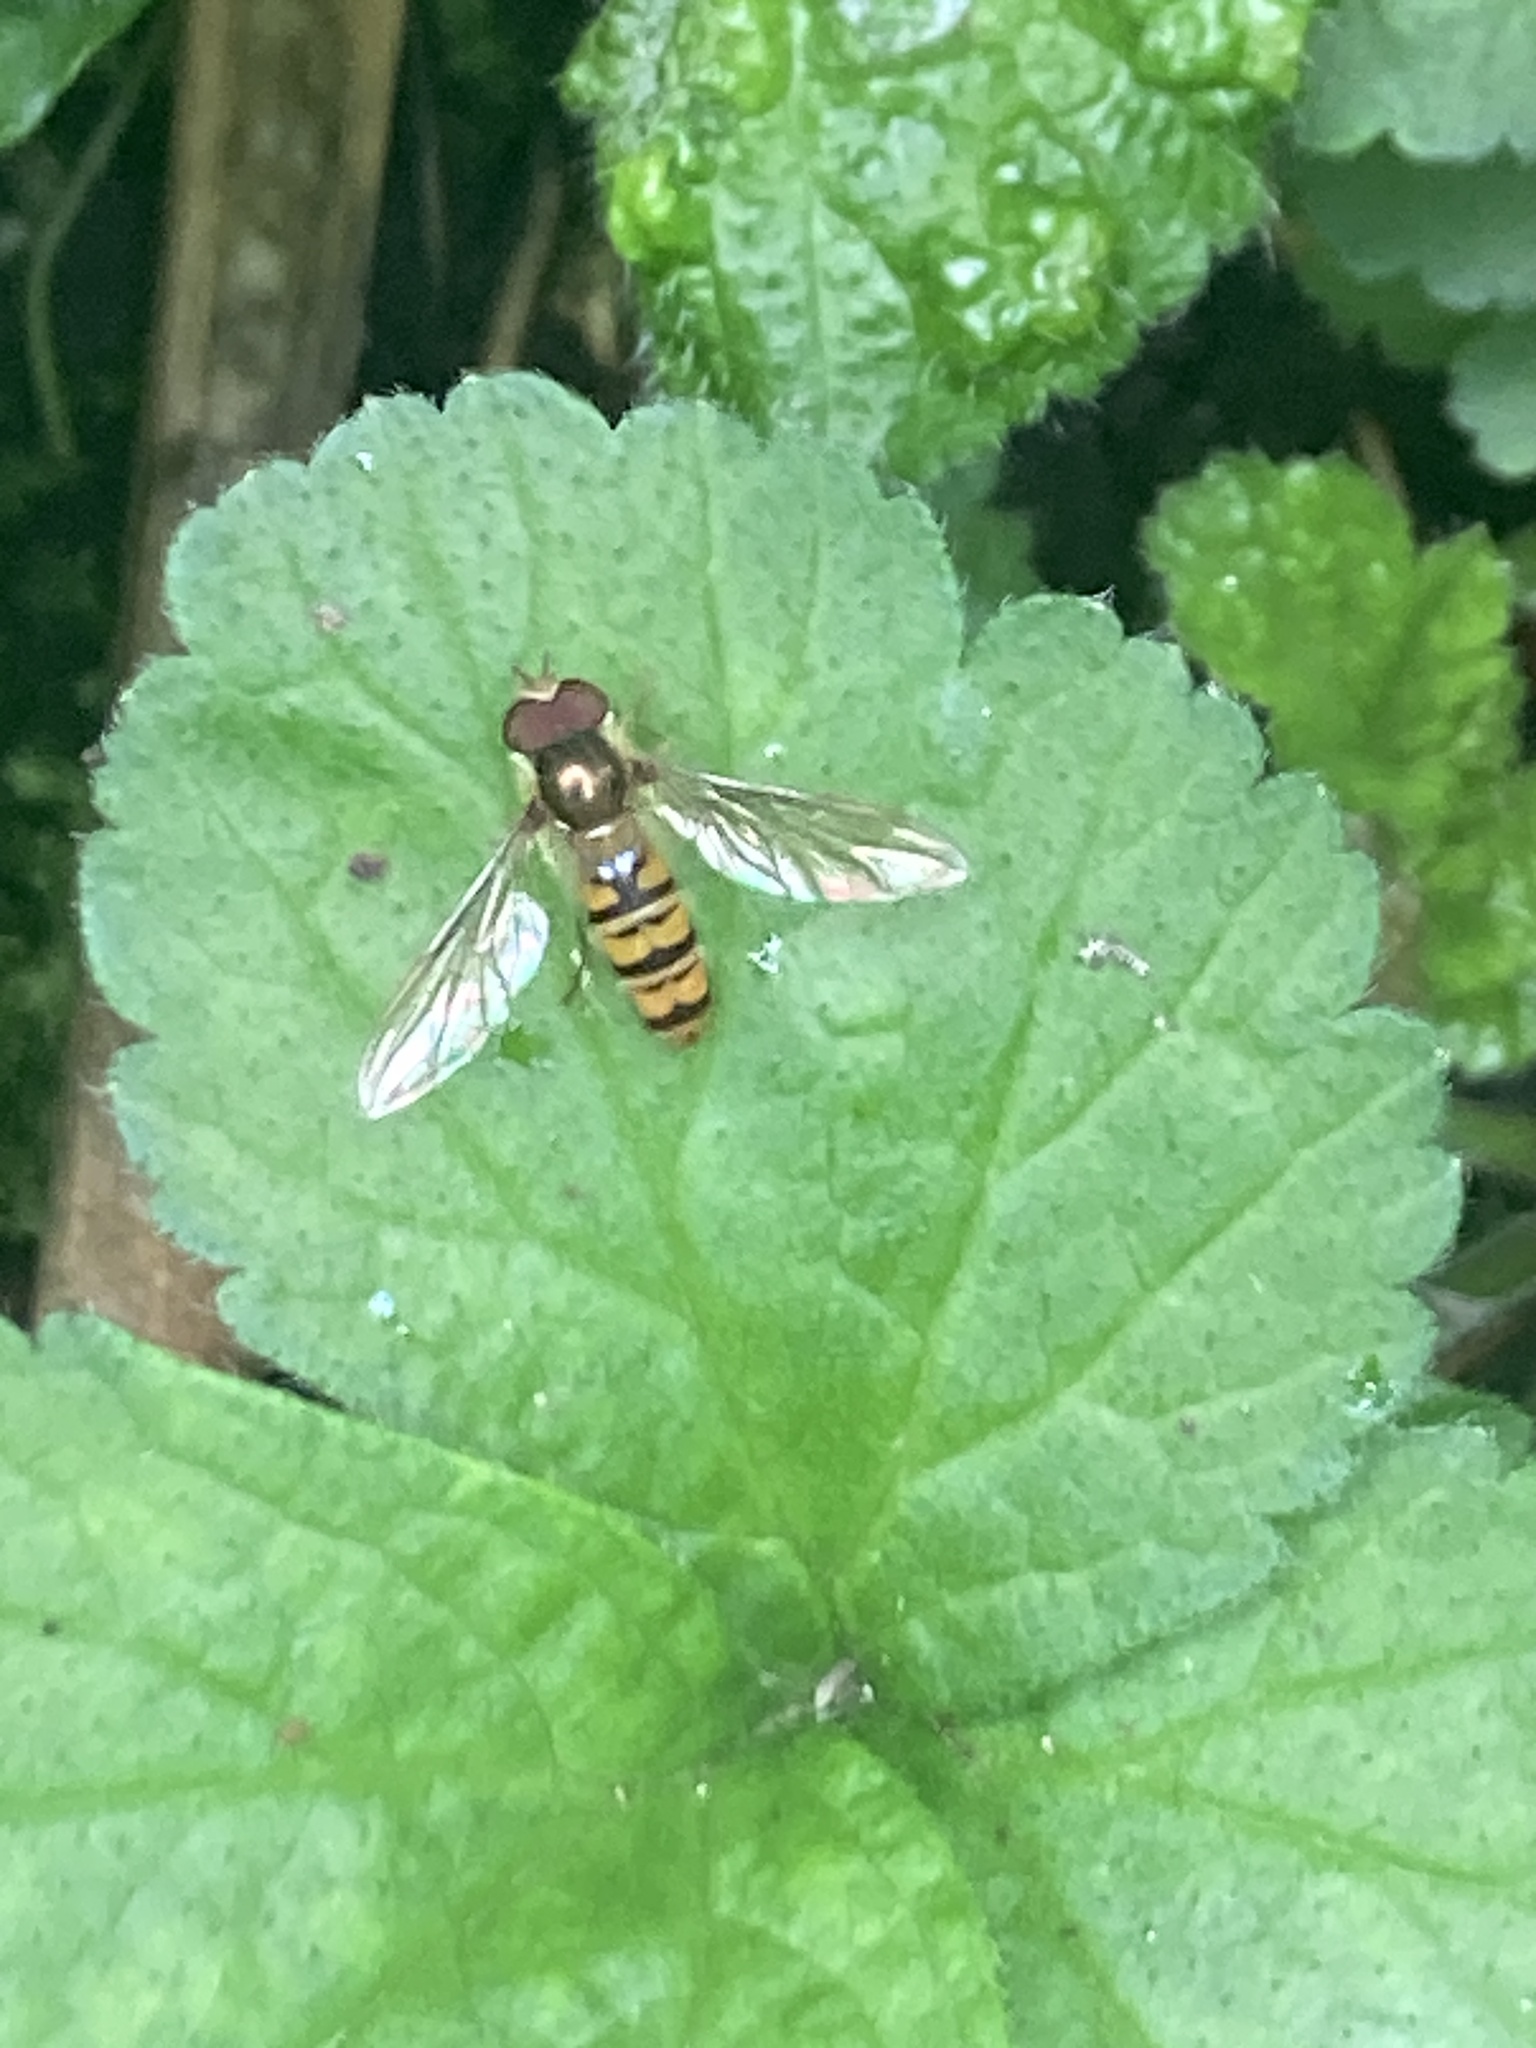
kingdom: Animalia
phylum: Arthropoda
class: Insecta
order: Diptera
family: Syrphidae
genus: Episyrphus
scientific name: Episyrphus balteatus
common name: Marmalade hoverfly
